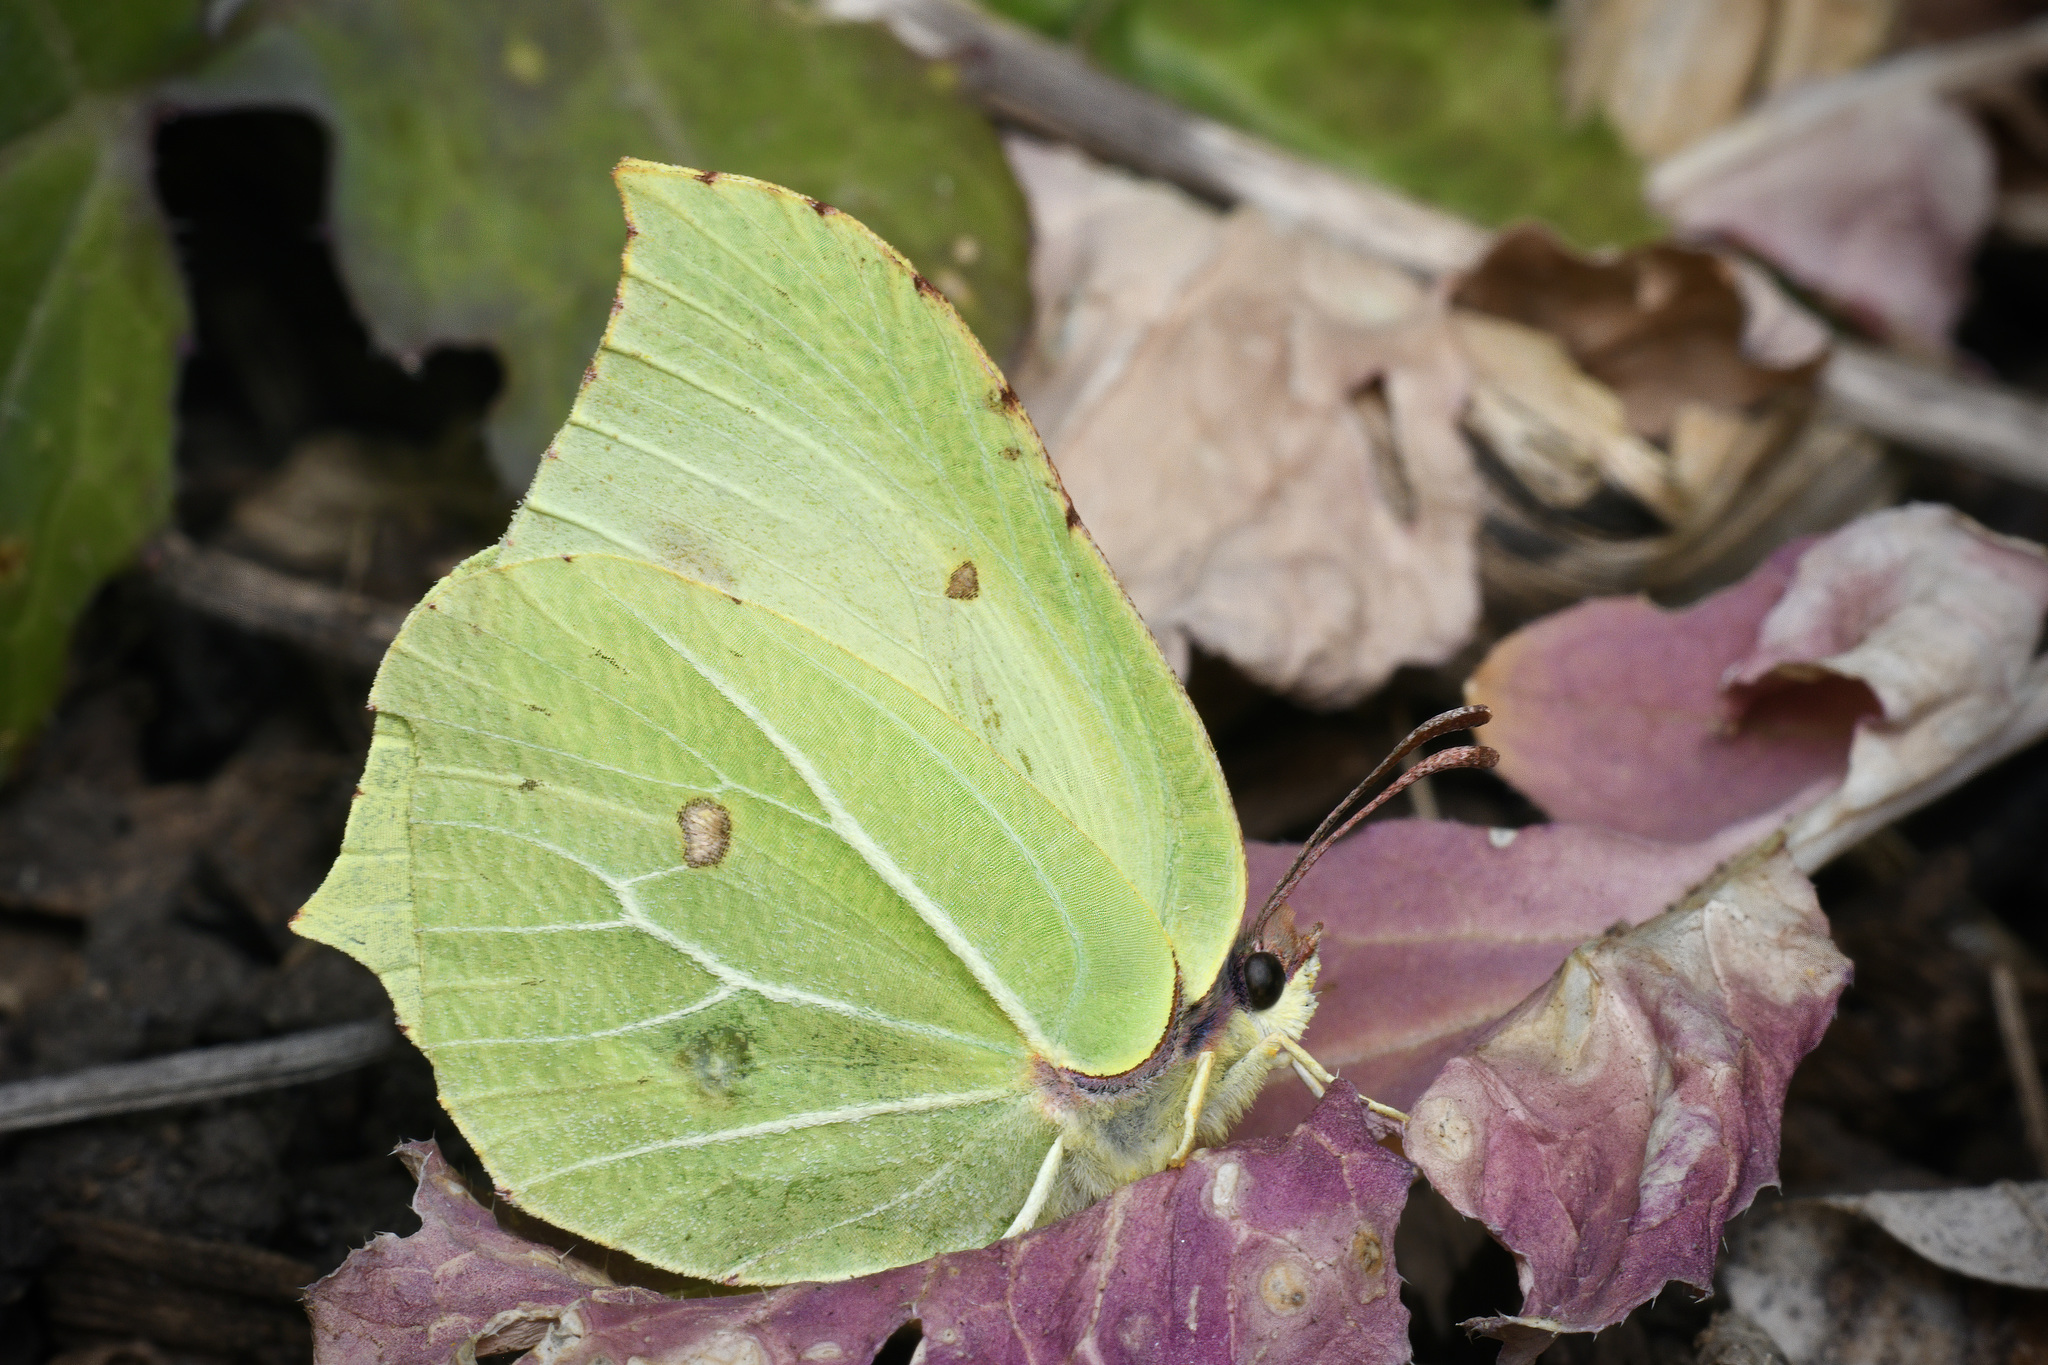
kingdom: Animalia
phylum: Arthropoda
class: Insecta
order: Lepidoptera
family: Pieridae
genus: Gonepteryx
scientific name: Gonepteryx rhamni
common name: Brimstone
